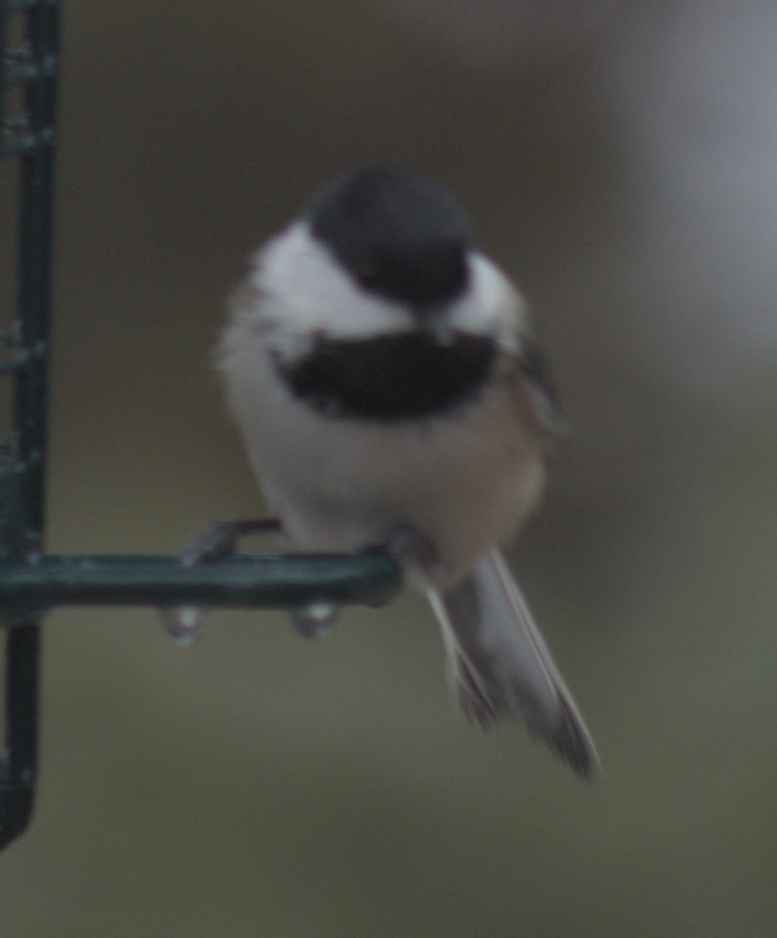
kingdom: Animalia
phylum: Chordata
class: Aves
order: Passeriformes
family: Paridae
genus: Poecile
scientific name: Poecile atricapillus
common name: Black-capped chickadee
